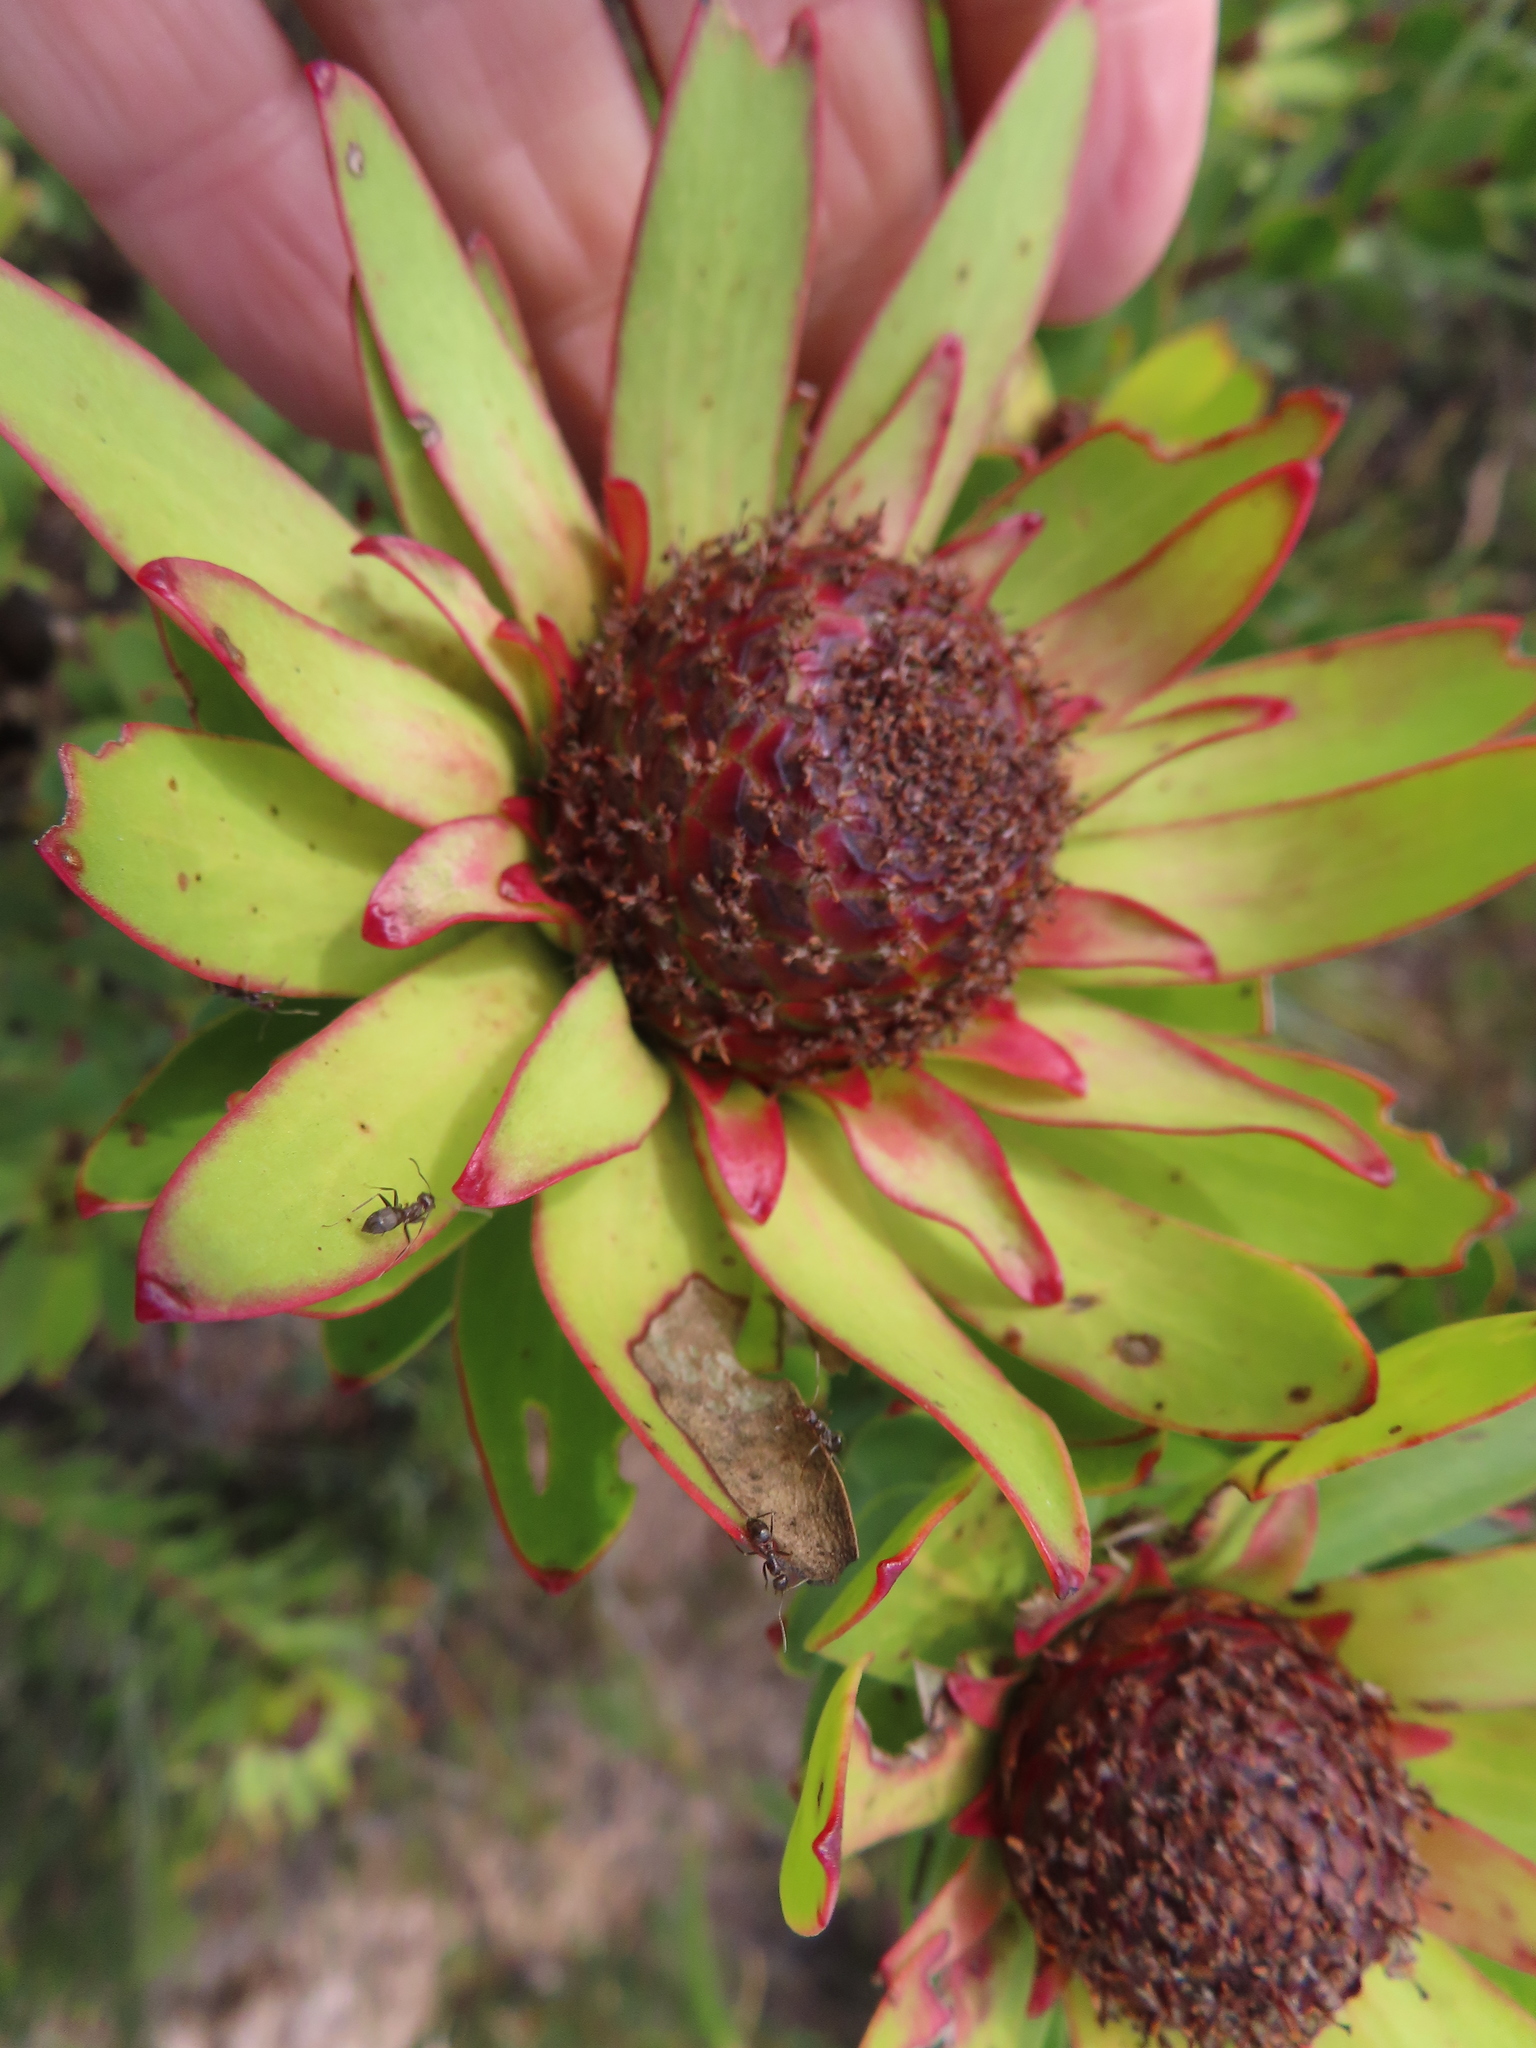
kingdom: Plantae
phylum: Tracheophyta
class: Magnoliopsida
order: Proteales
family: Proteaceae
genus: Leucadendron
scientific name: Leucadendron elimense
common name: Elim conebush
